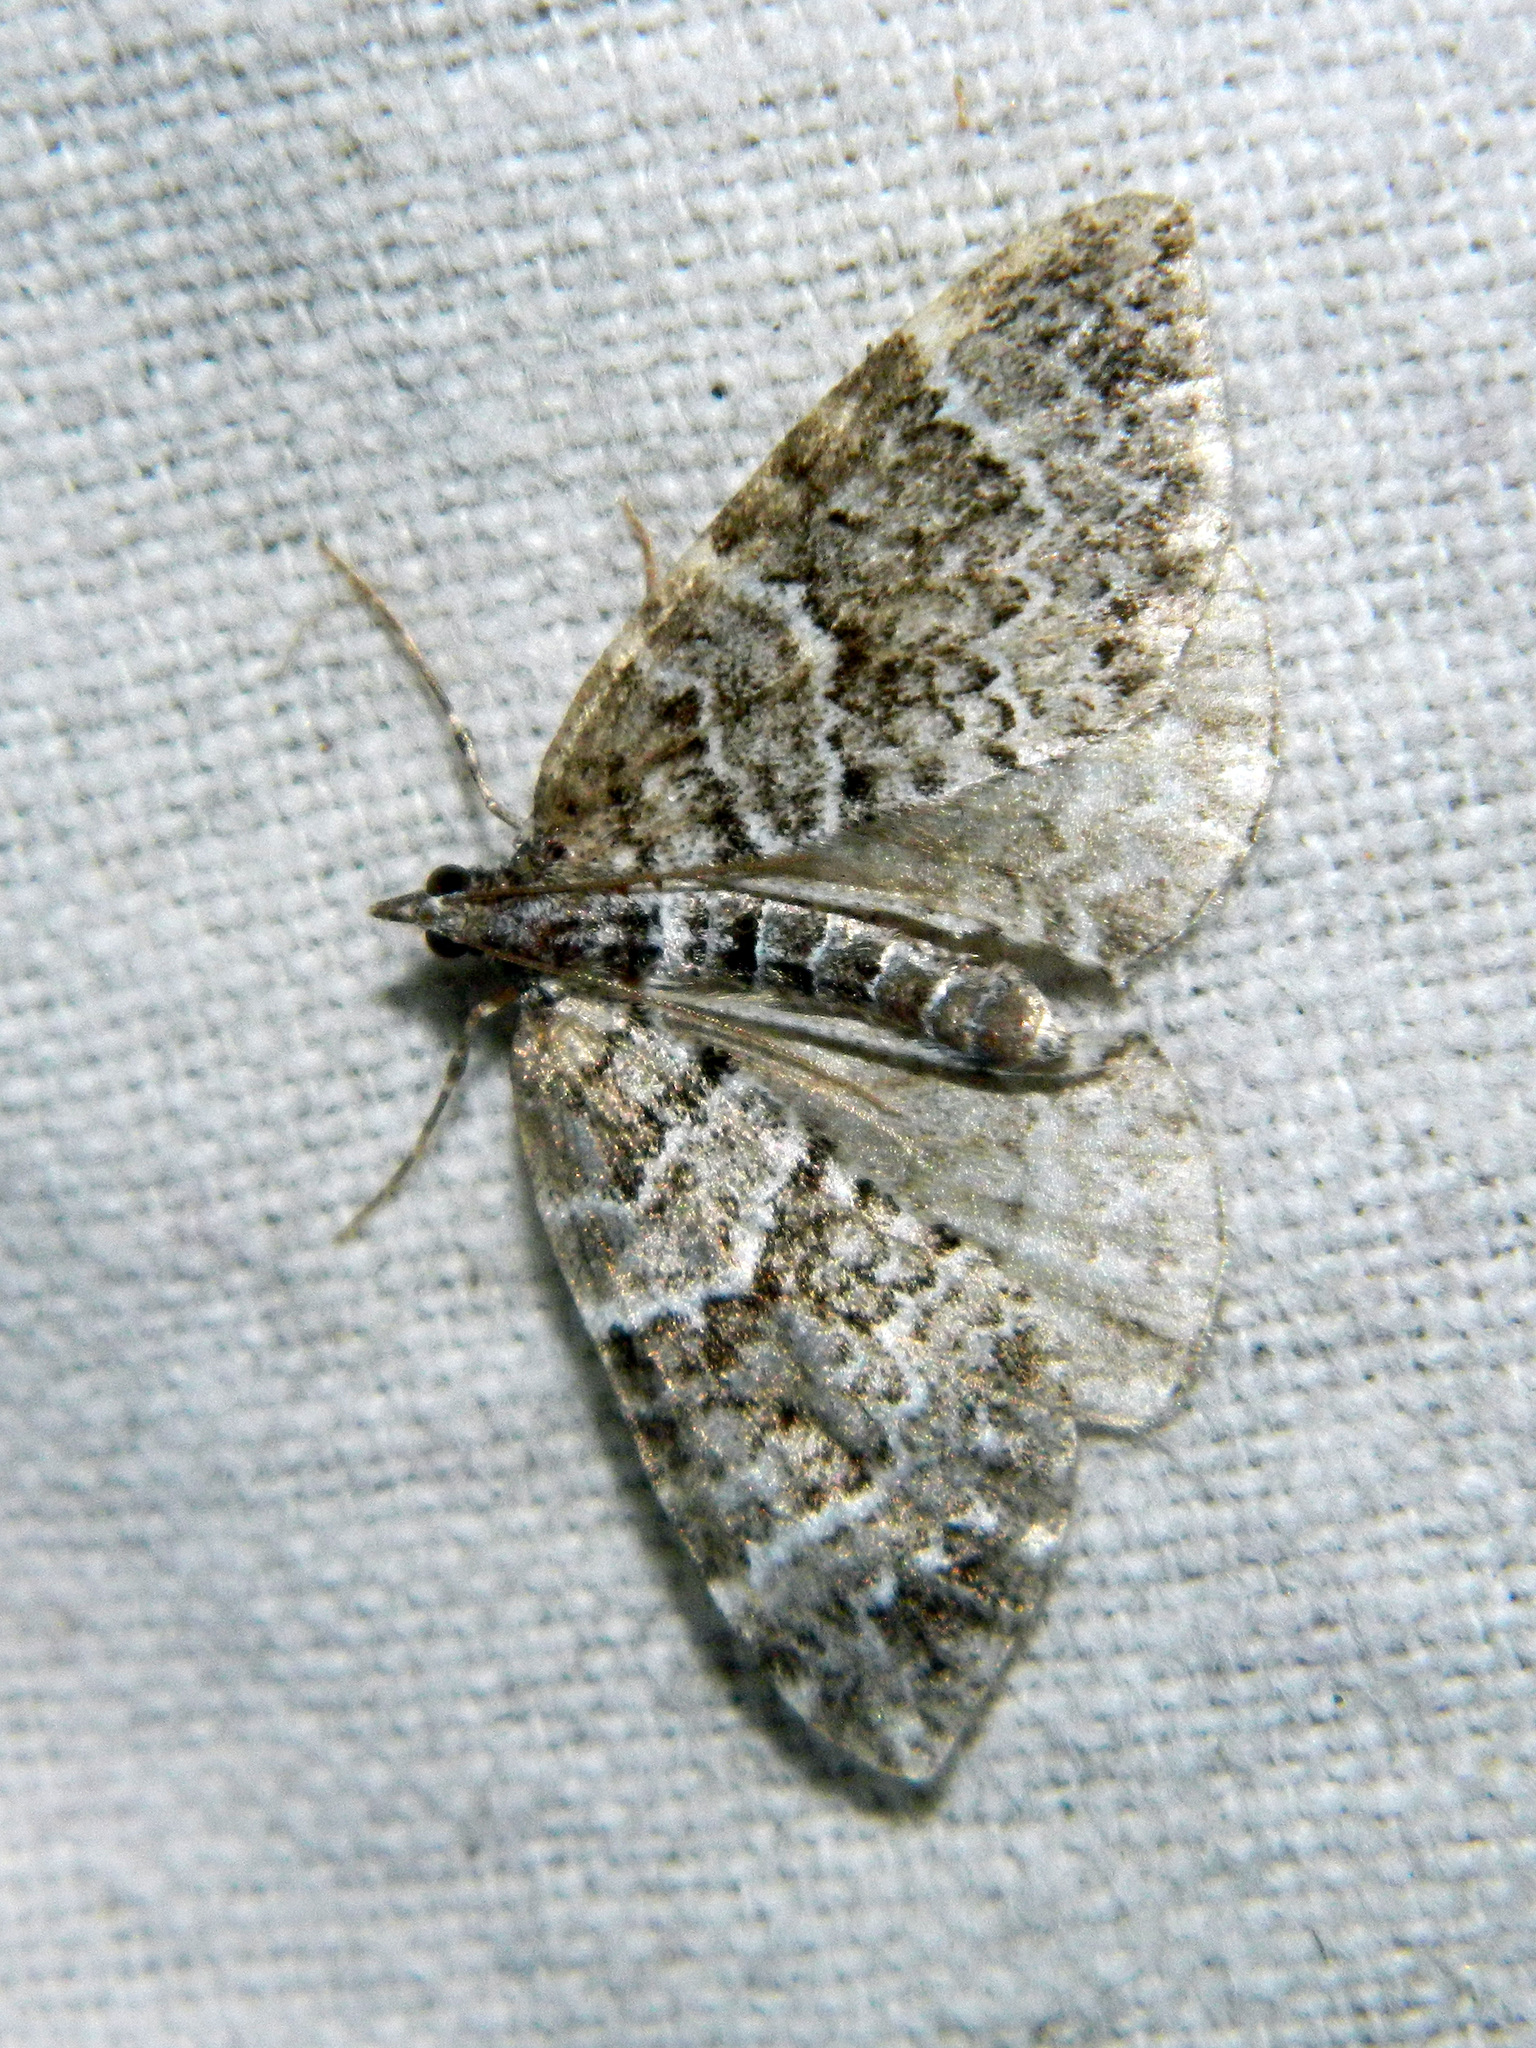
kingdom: Animalia
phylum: Arthropoda
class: Insecta
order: Lepidoptera
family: Geometridae
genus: Eulithis
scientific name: Eulithis explanata
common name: White eulithis
